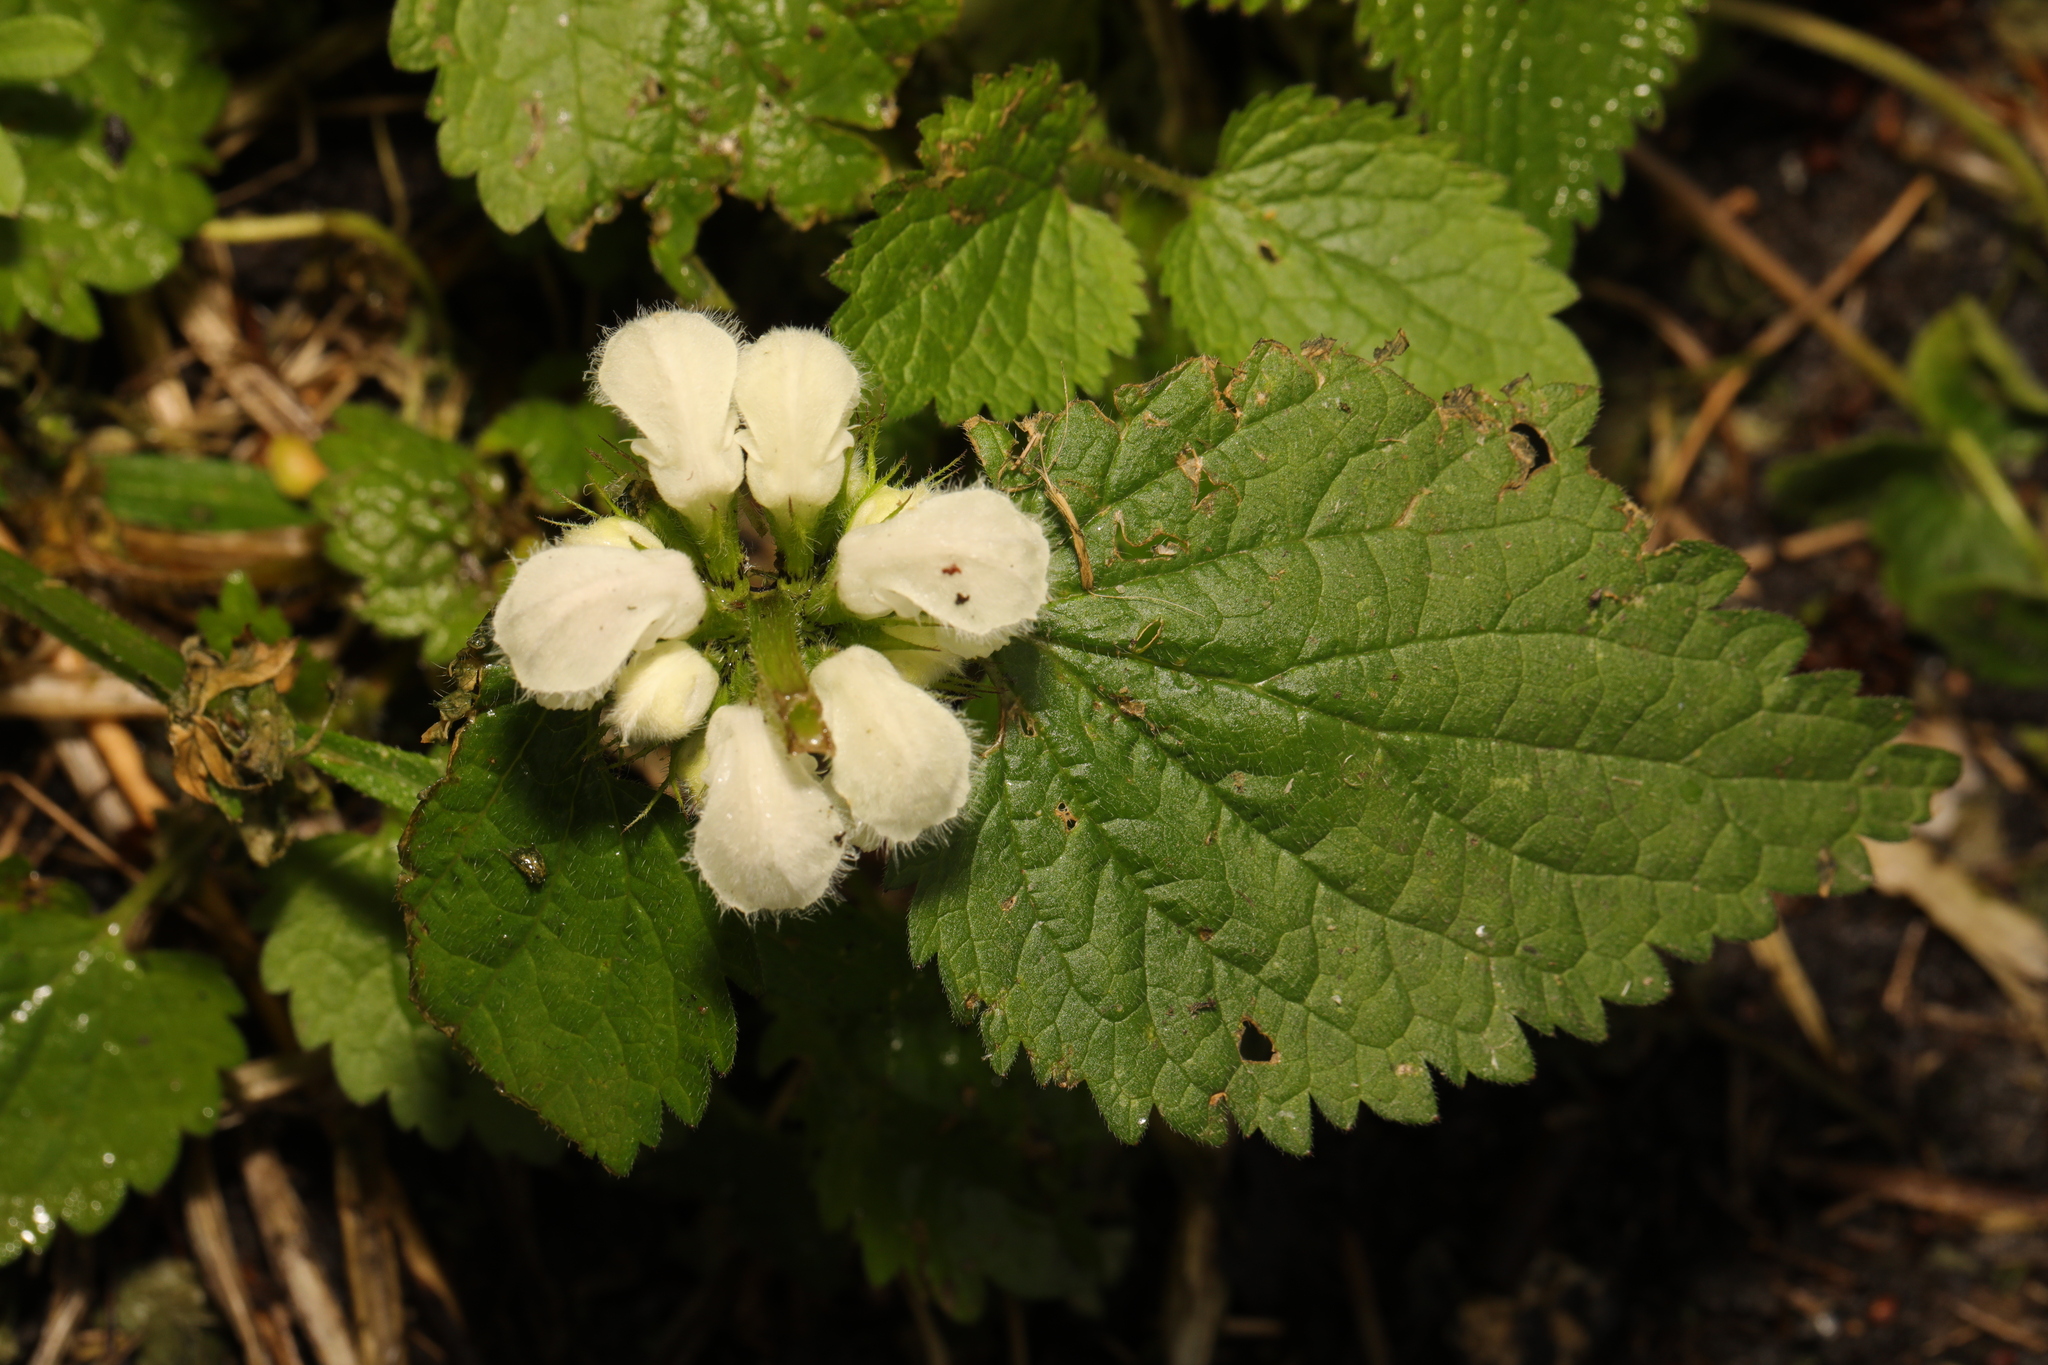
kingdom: Plantae
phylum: Tracheophyta
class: Magnoliopsida
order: Lamiales
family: Lamiaceae
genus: Lamium
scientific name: Lamium album
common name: White dead-nettle
